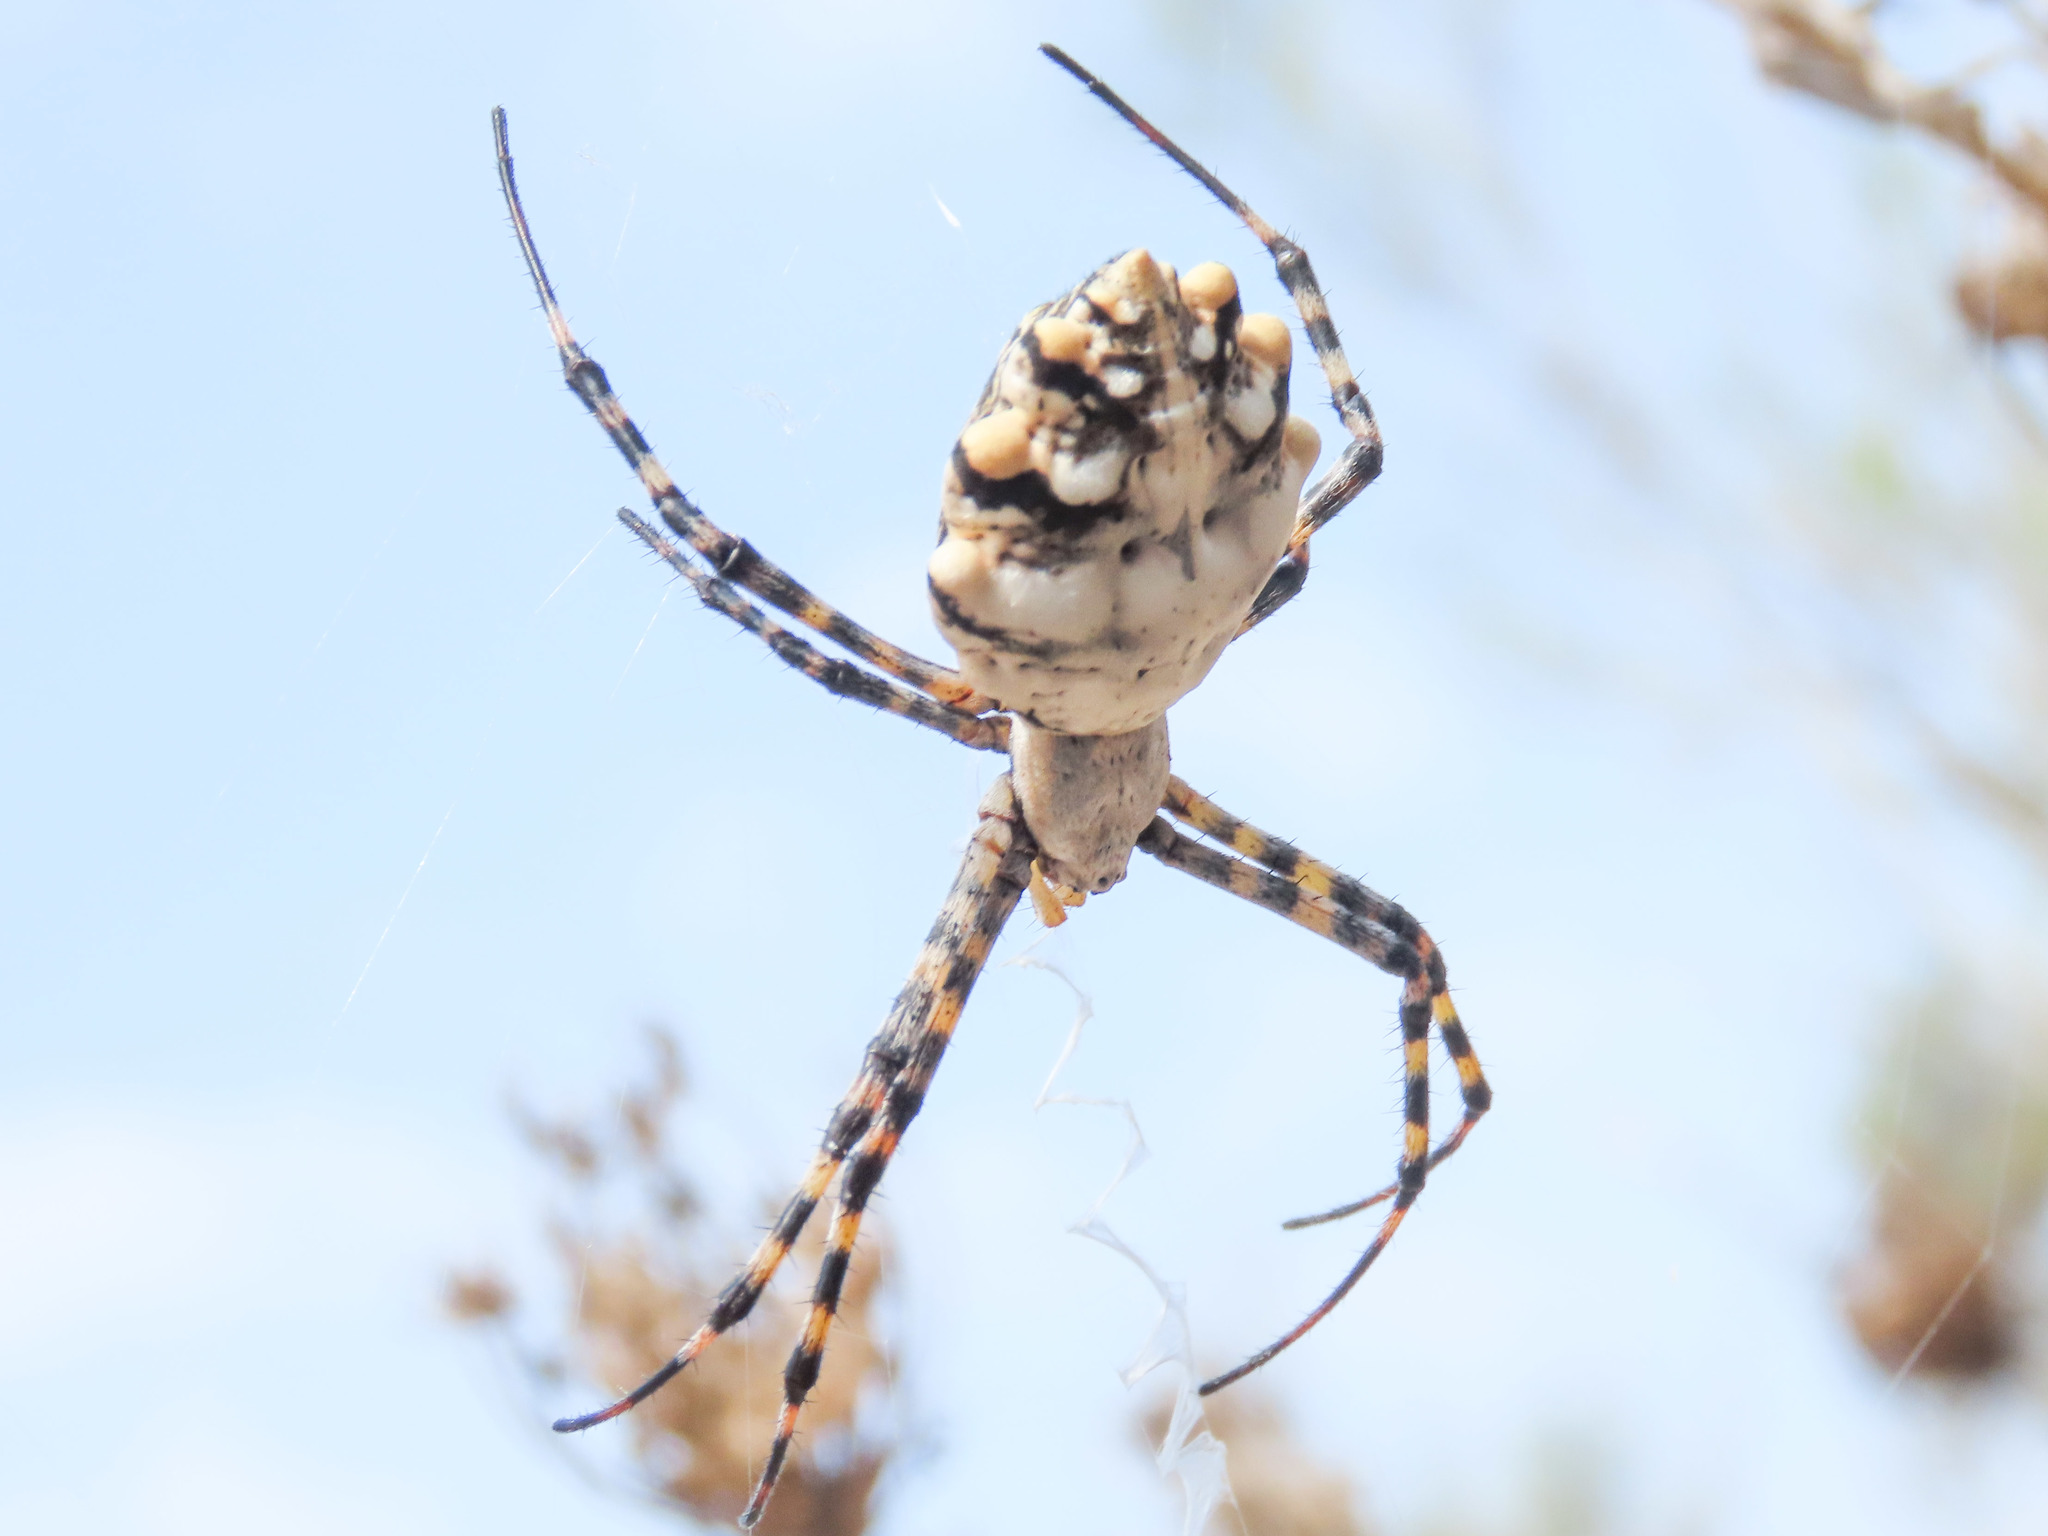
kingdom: Animalia
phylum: Arthropoda
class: Arachnida
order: Araneae
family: Araneidae
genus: Argiope
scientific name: Argiope lobata
